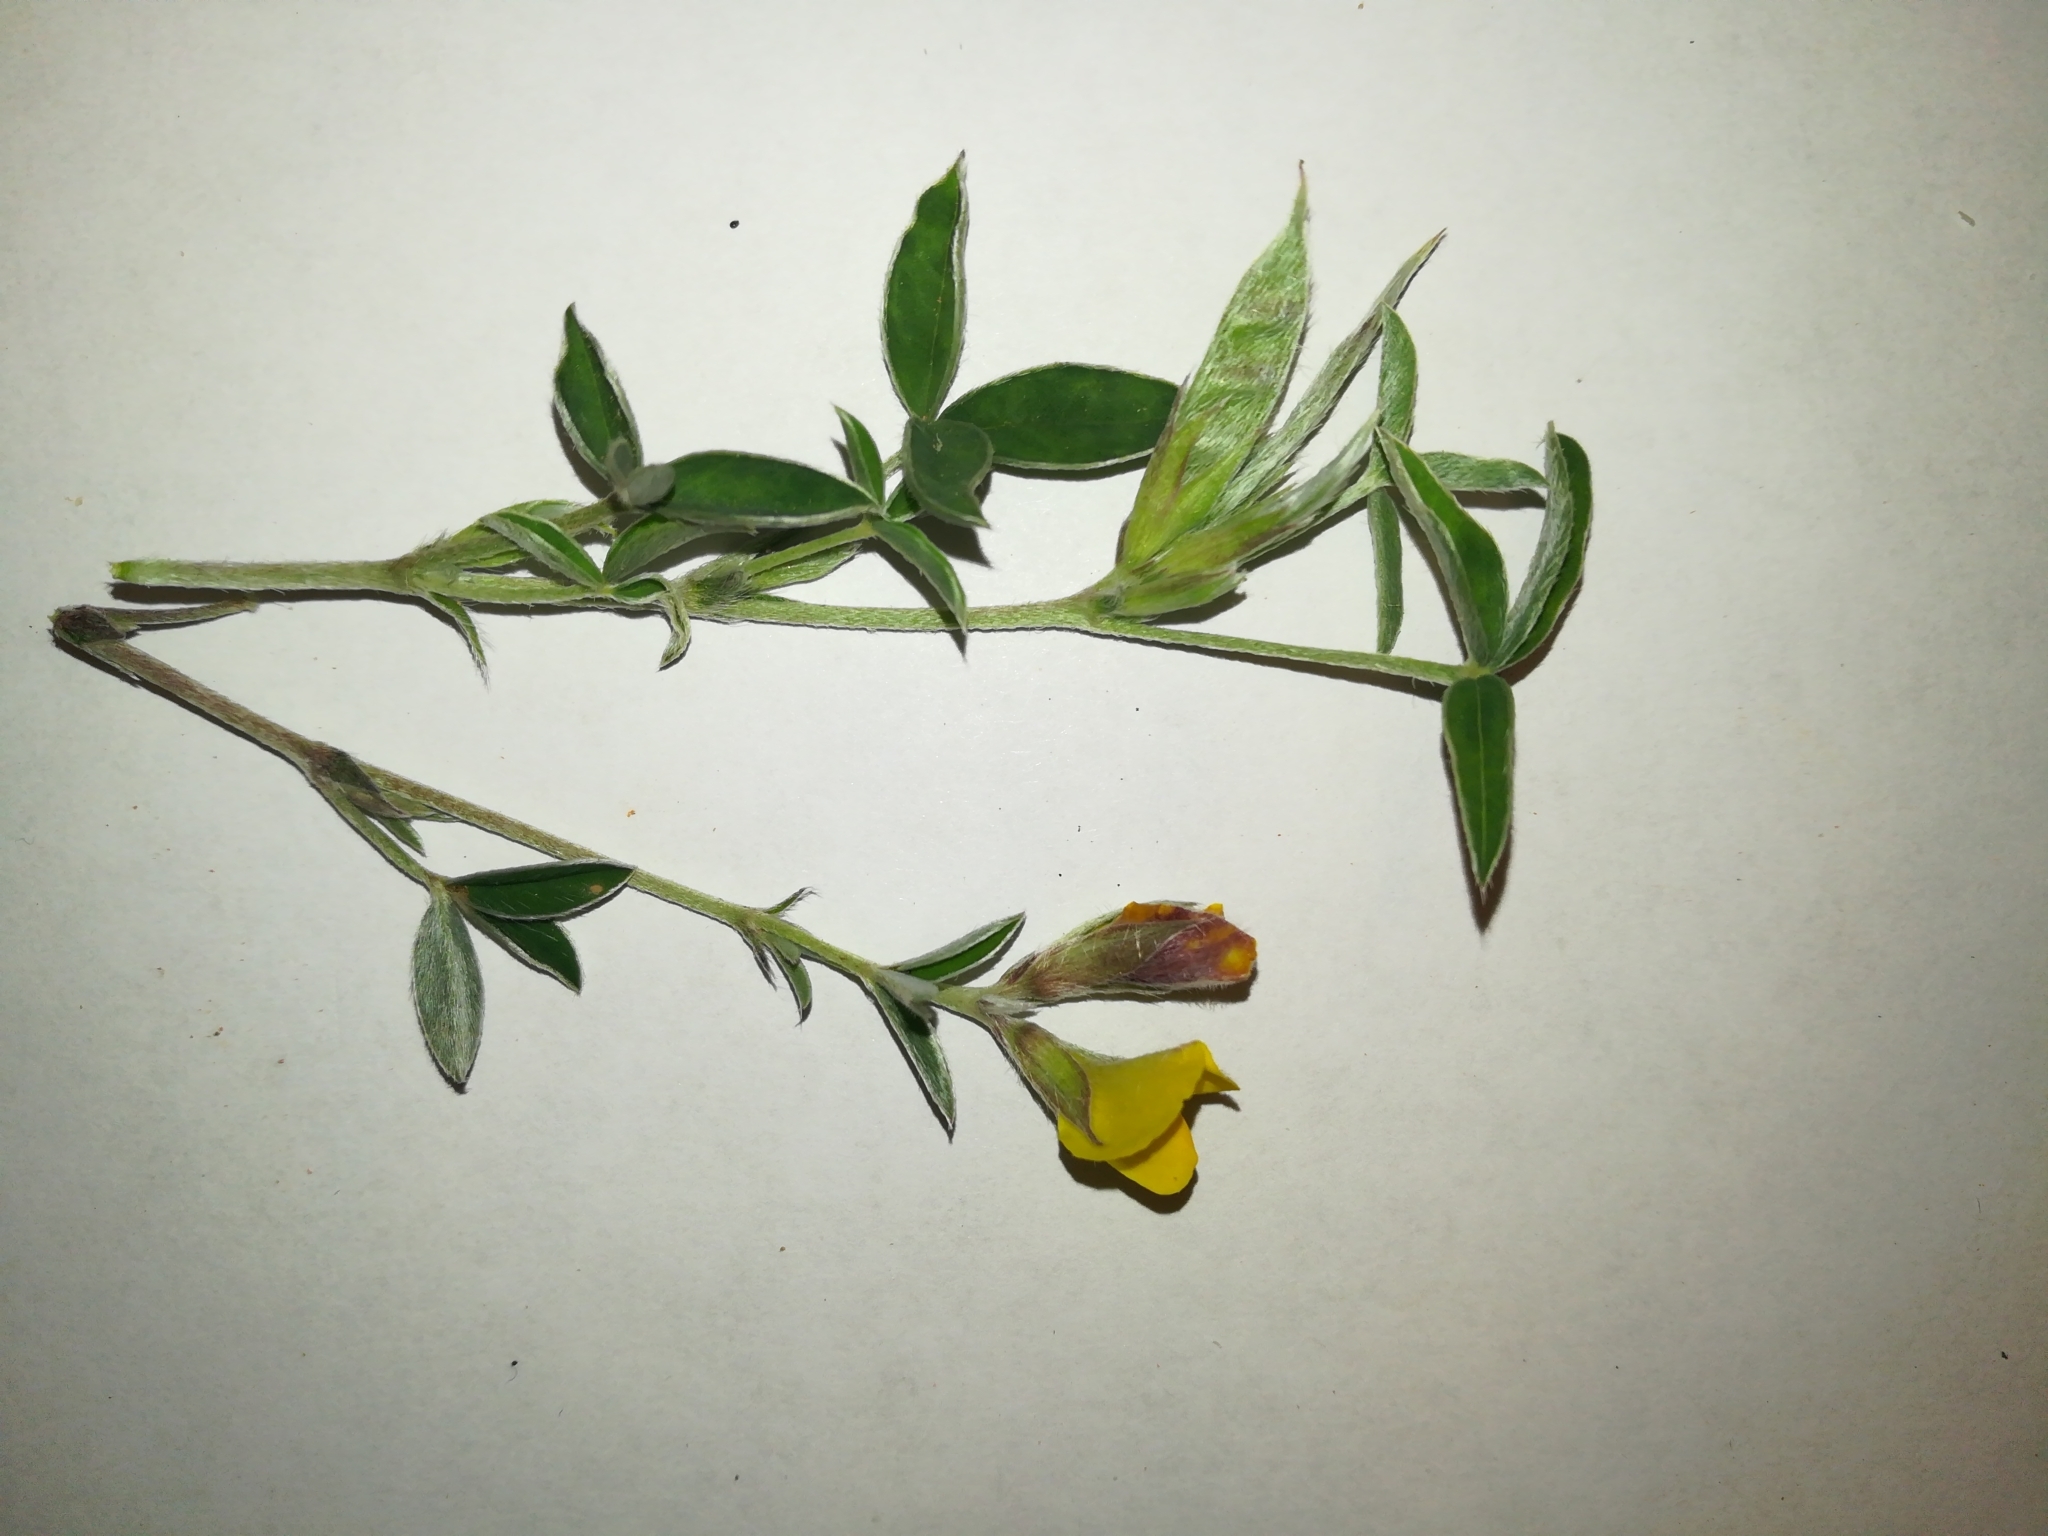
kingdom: Plantae
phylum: Tracheophyta
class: Magnoliopsida
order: Fabales
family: Fabaceae
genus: Argyrolobium
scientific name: Argyrolobium zanonii
